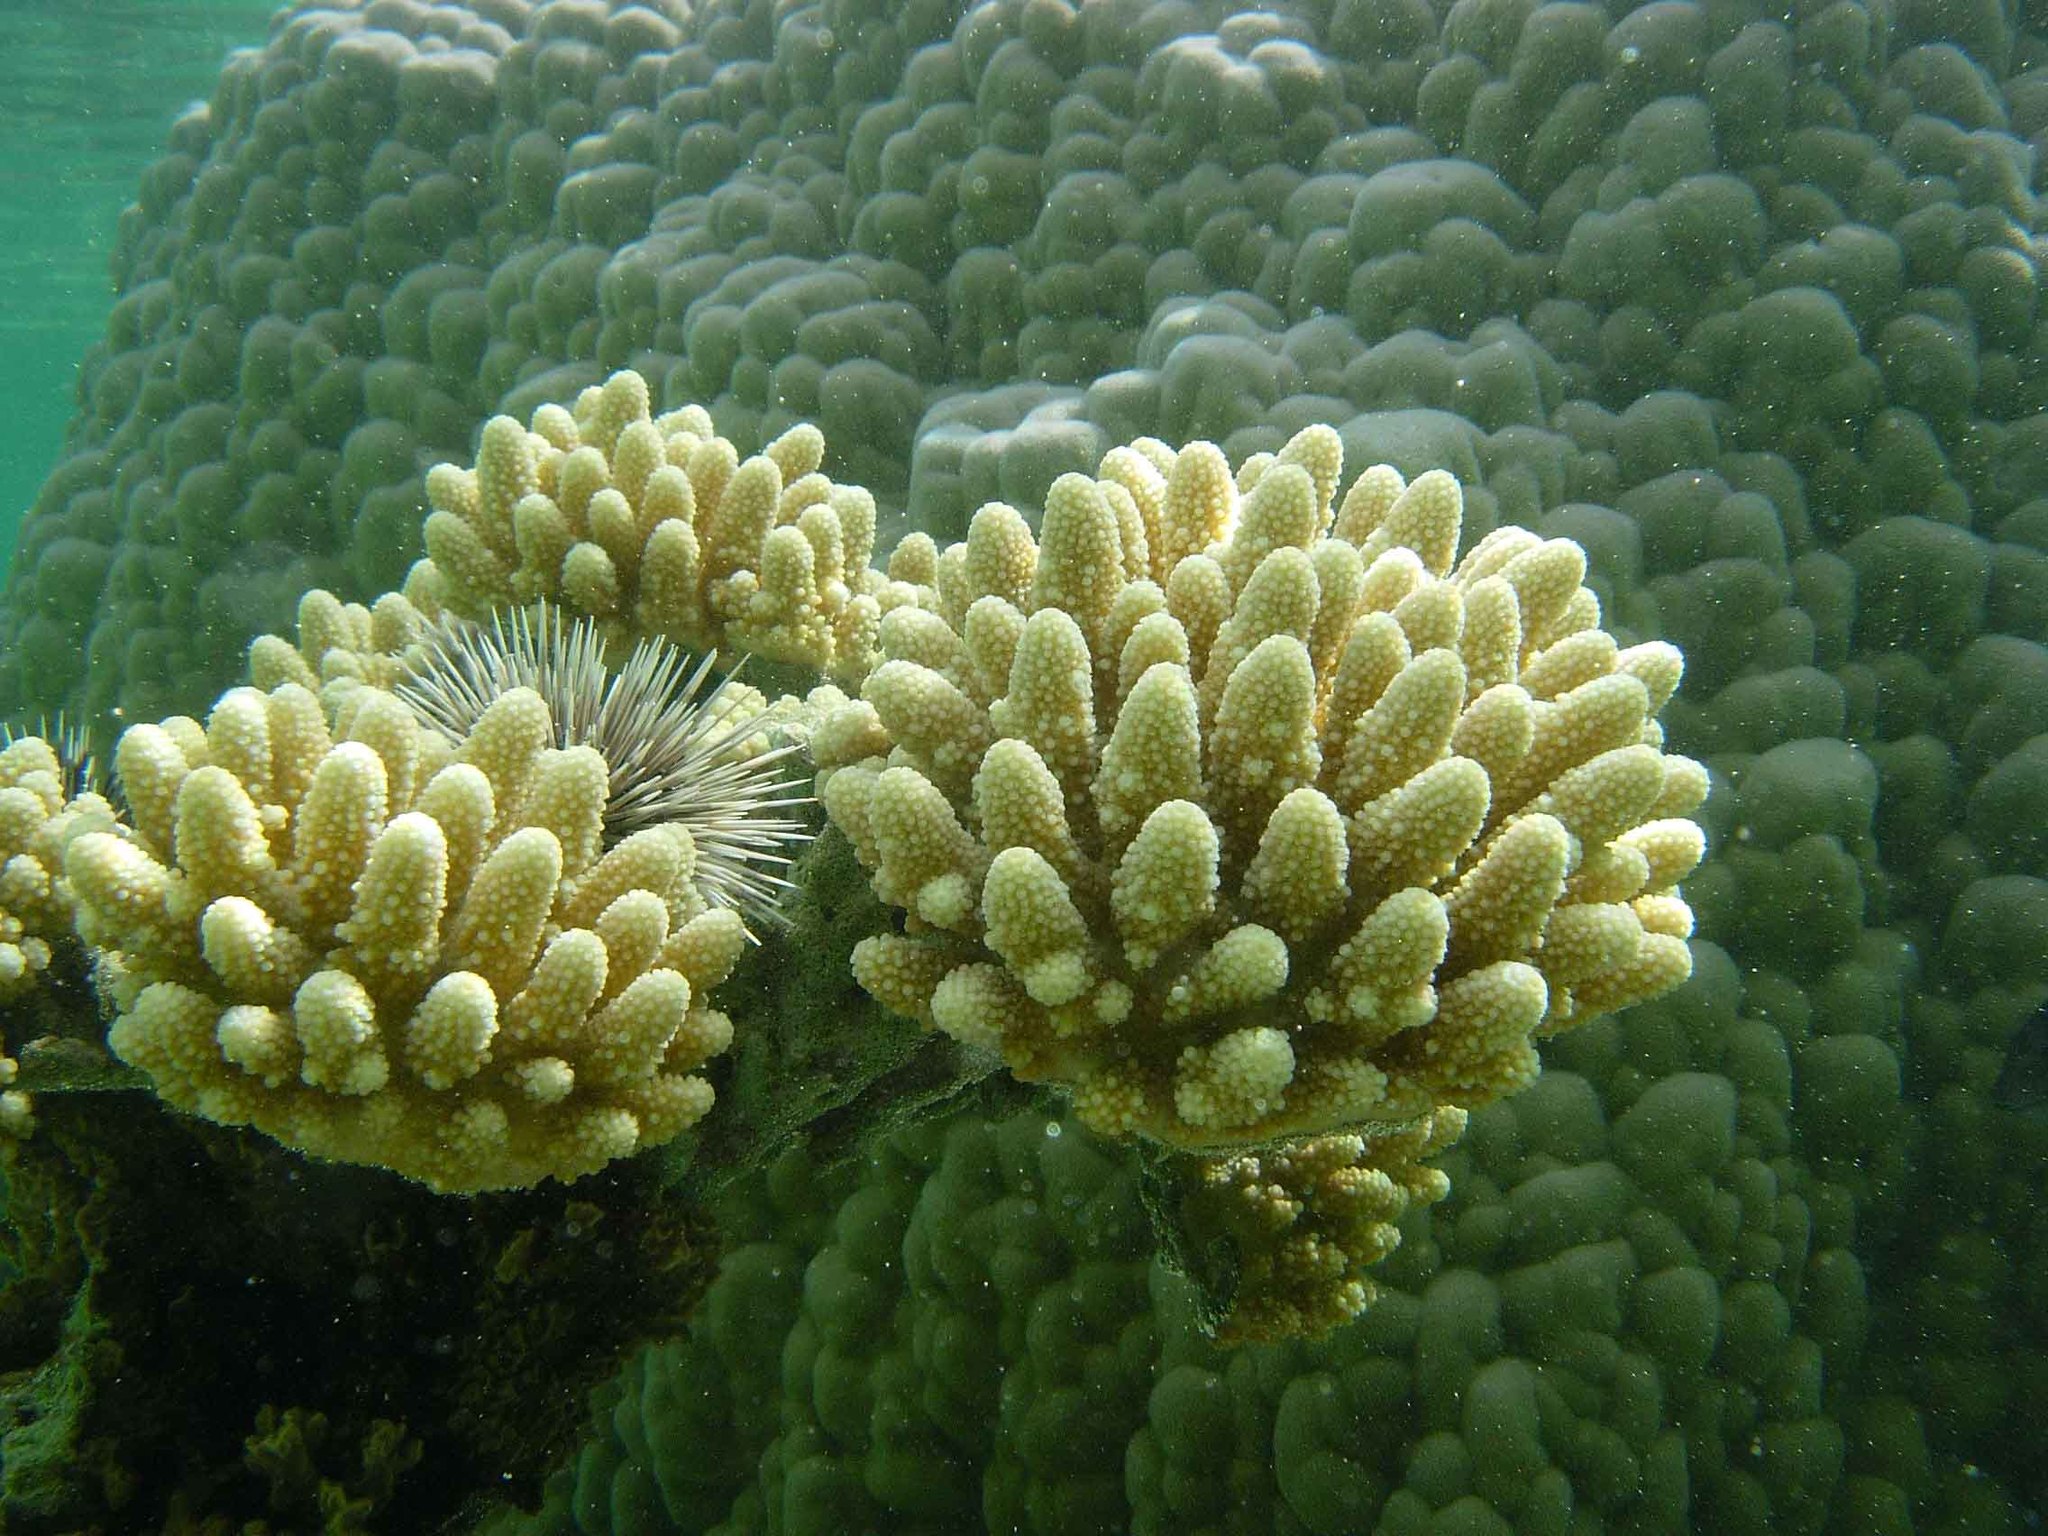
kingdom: Animalia
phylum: Cnidaria
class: Anthozoa
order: Scleractinia
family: Acroporidae
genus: Acropora
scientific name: Acropora gemmifera
